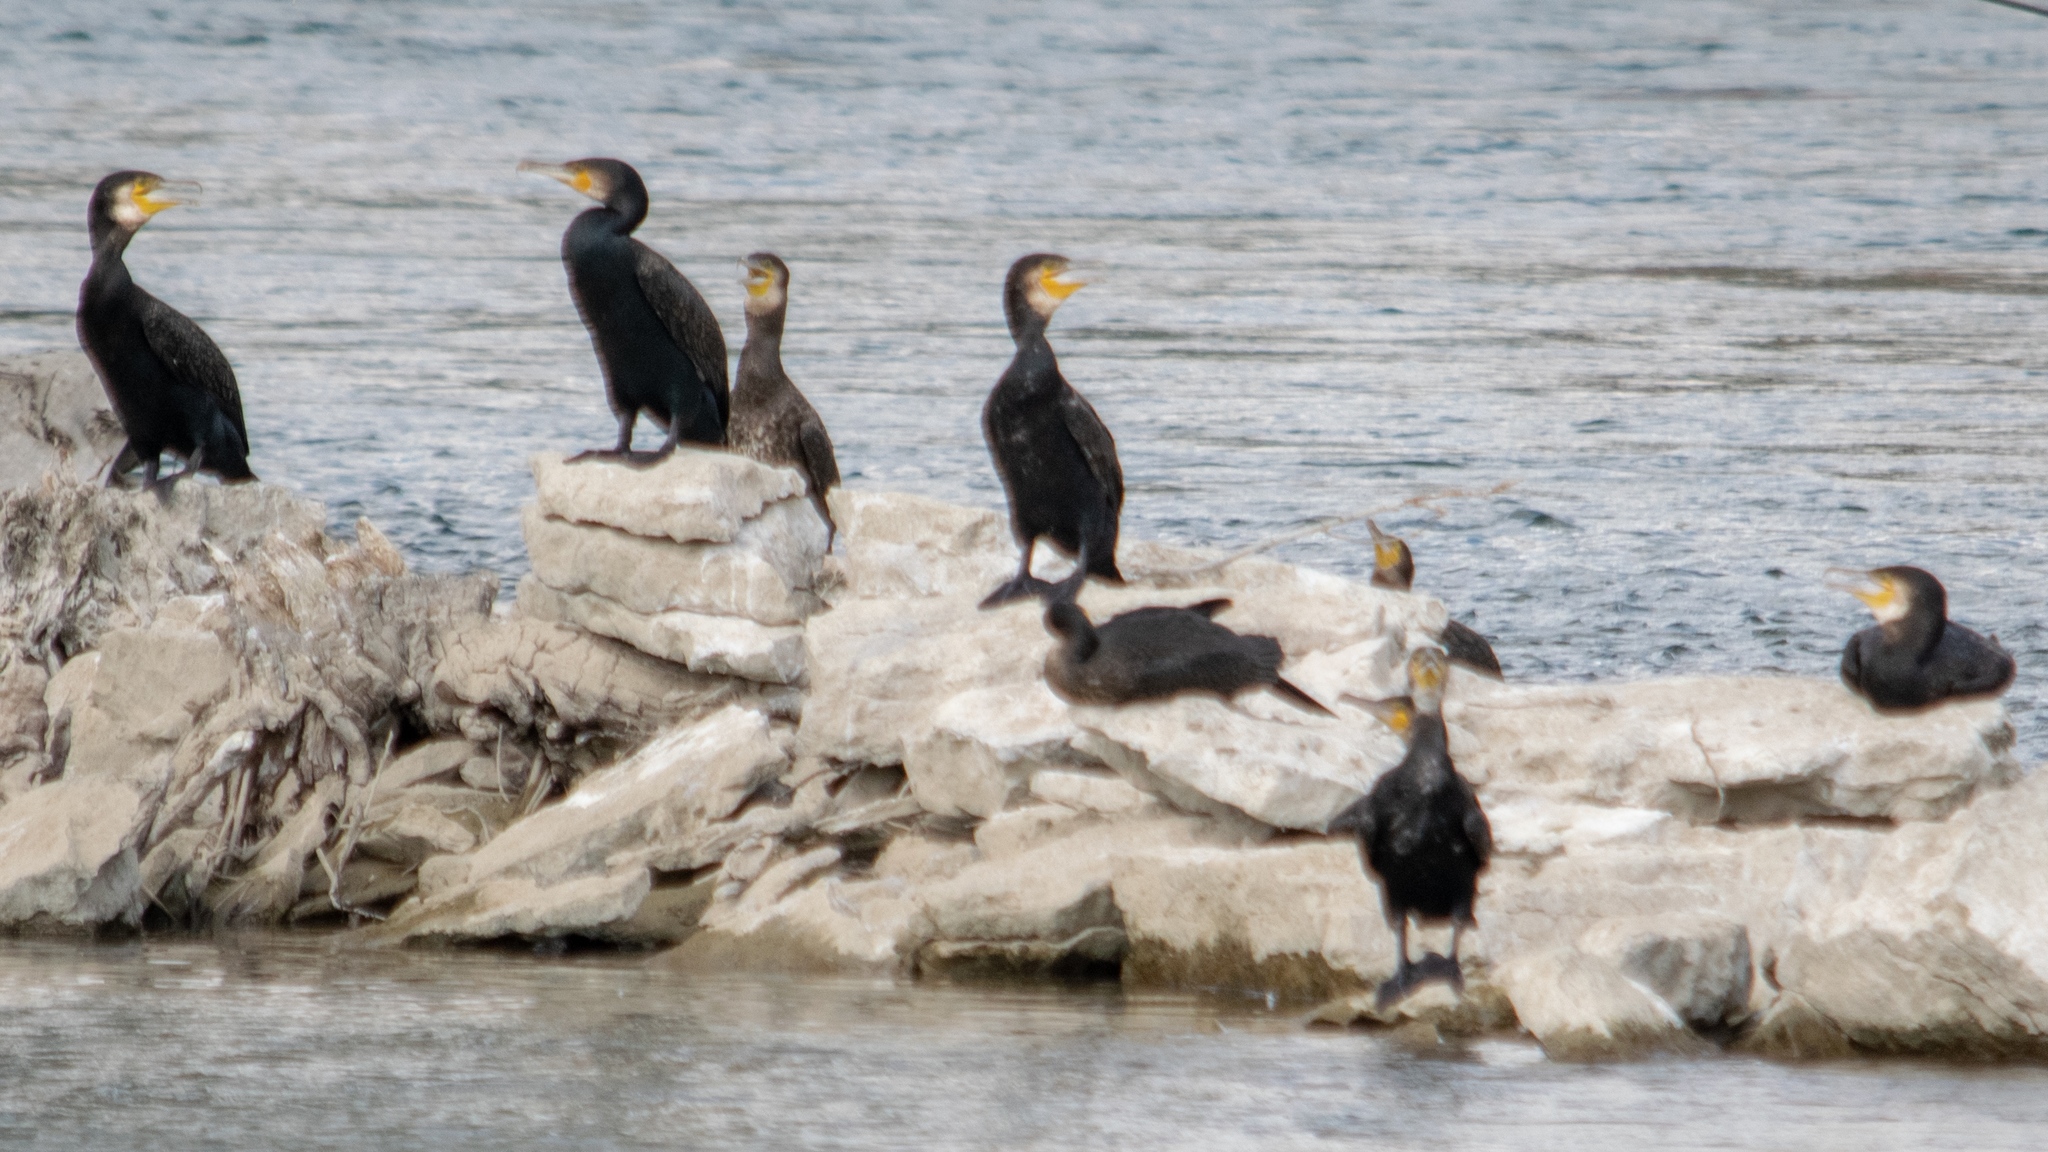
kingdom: Animalia
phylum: Chordata
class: Aves
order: Suliformes
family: Phalacrocoracidae
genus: Phalacrocorax
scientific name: Phalacrocorax carbo
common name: Great cormorant
